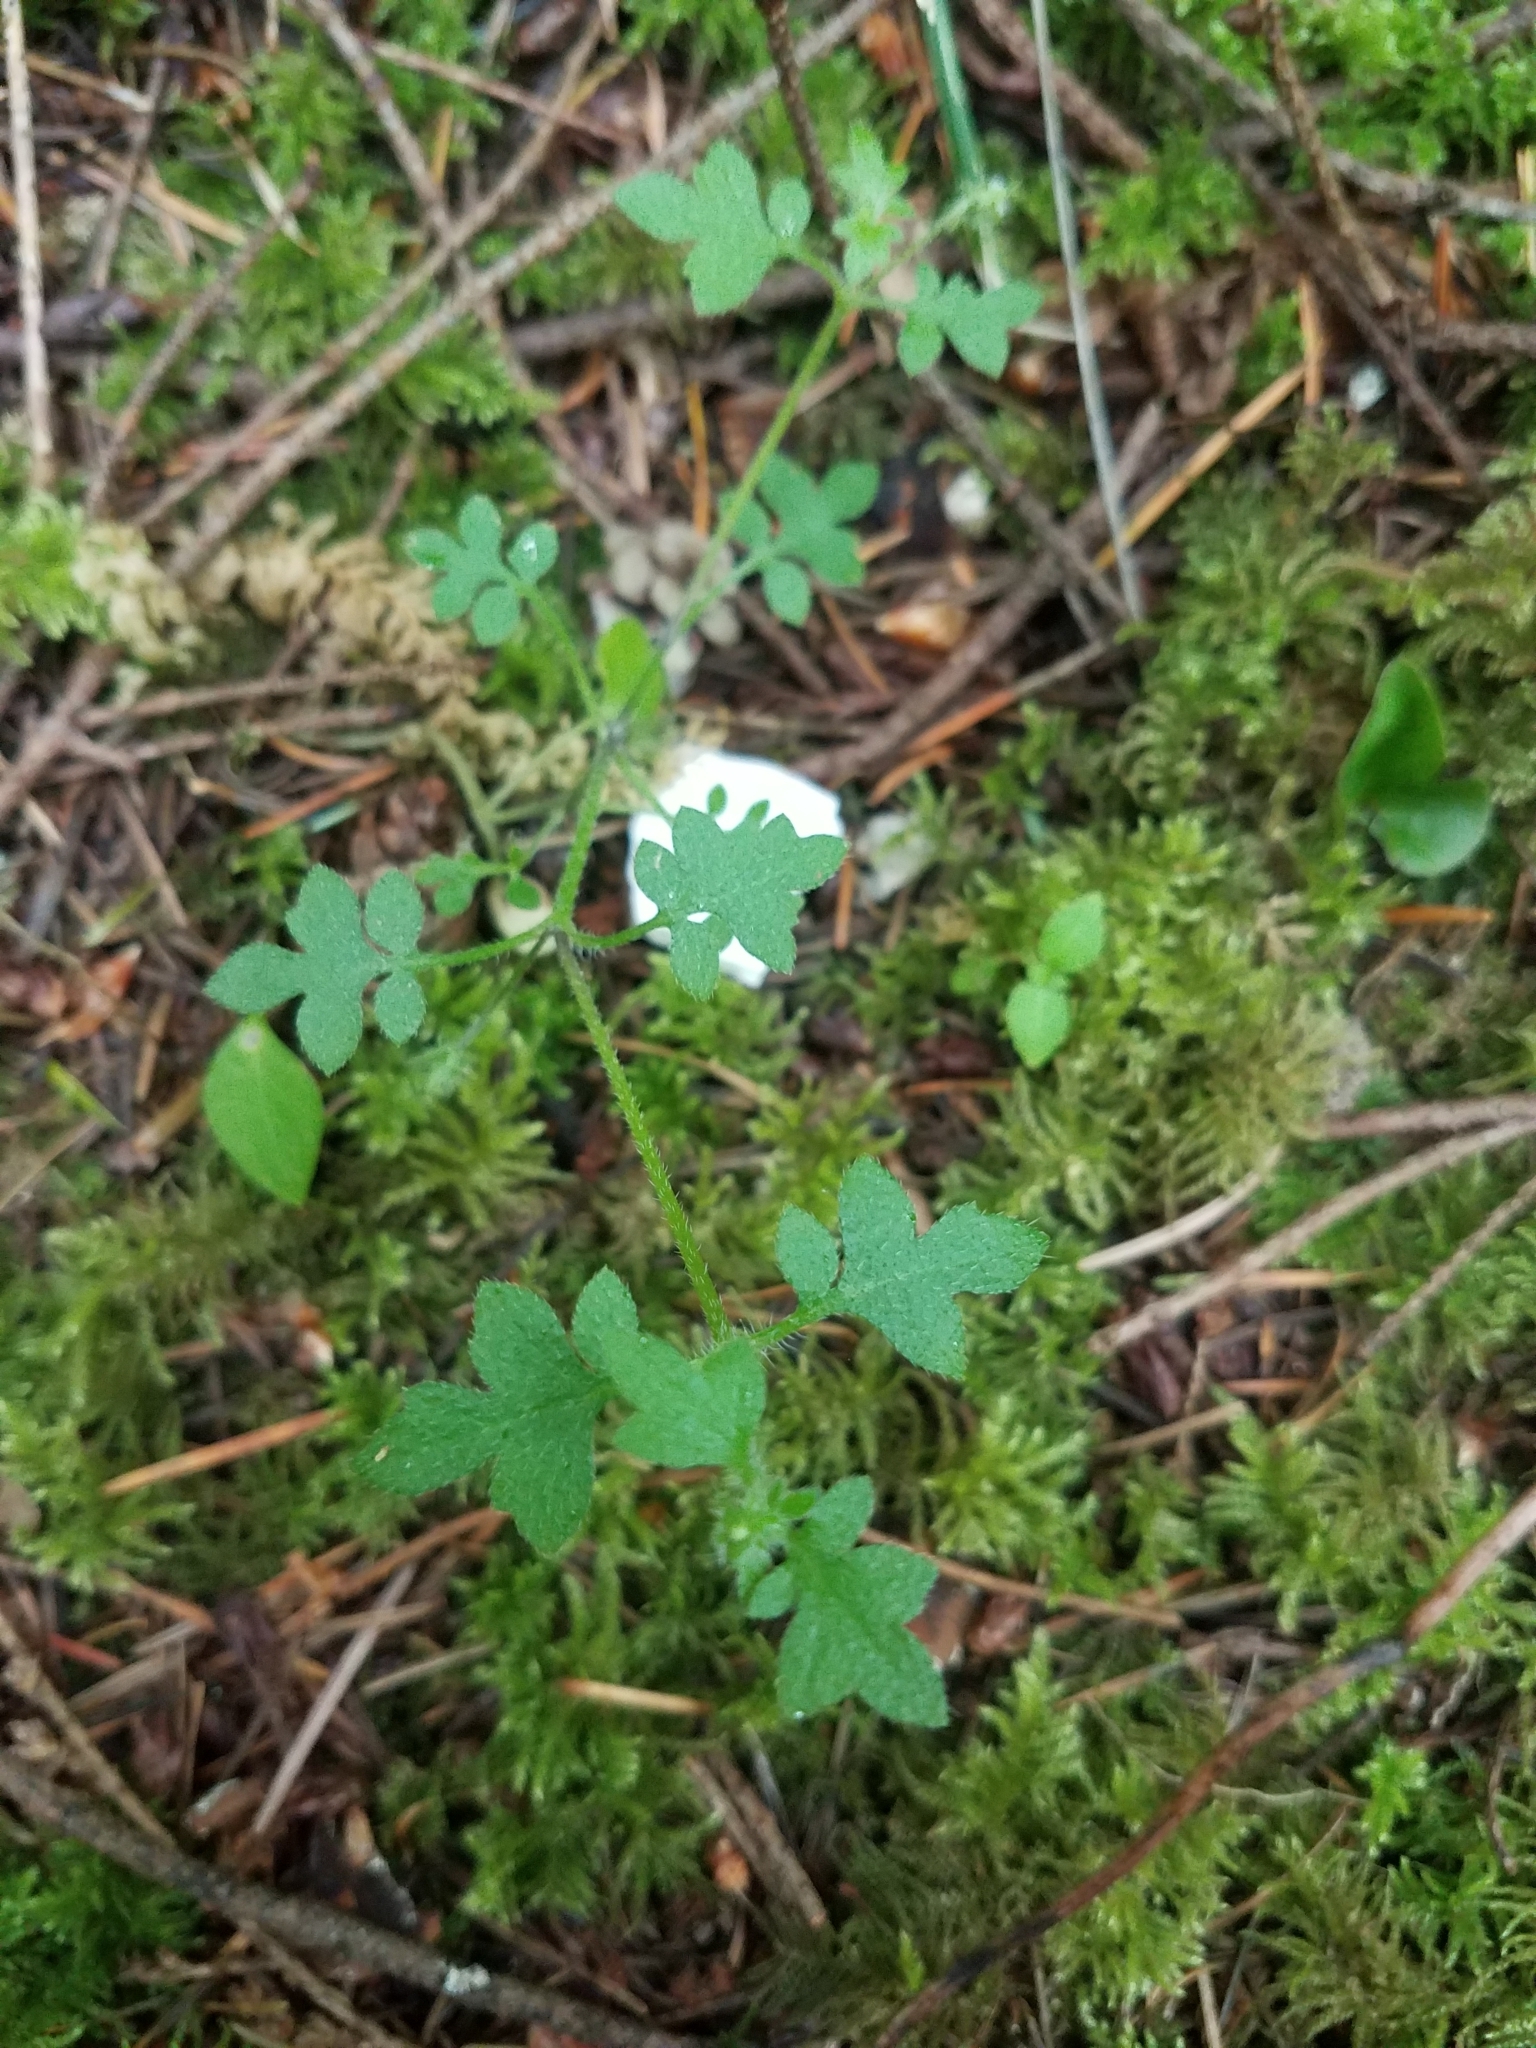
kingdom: Plantae
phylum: Tracheophyta
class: Magnoliopsida
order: Boraginales
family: Hydrophyllaceae
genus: Nemophila
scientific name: Nemophila parviflora
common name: Small-flowered baby-blue-eyes
